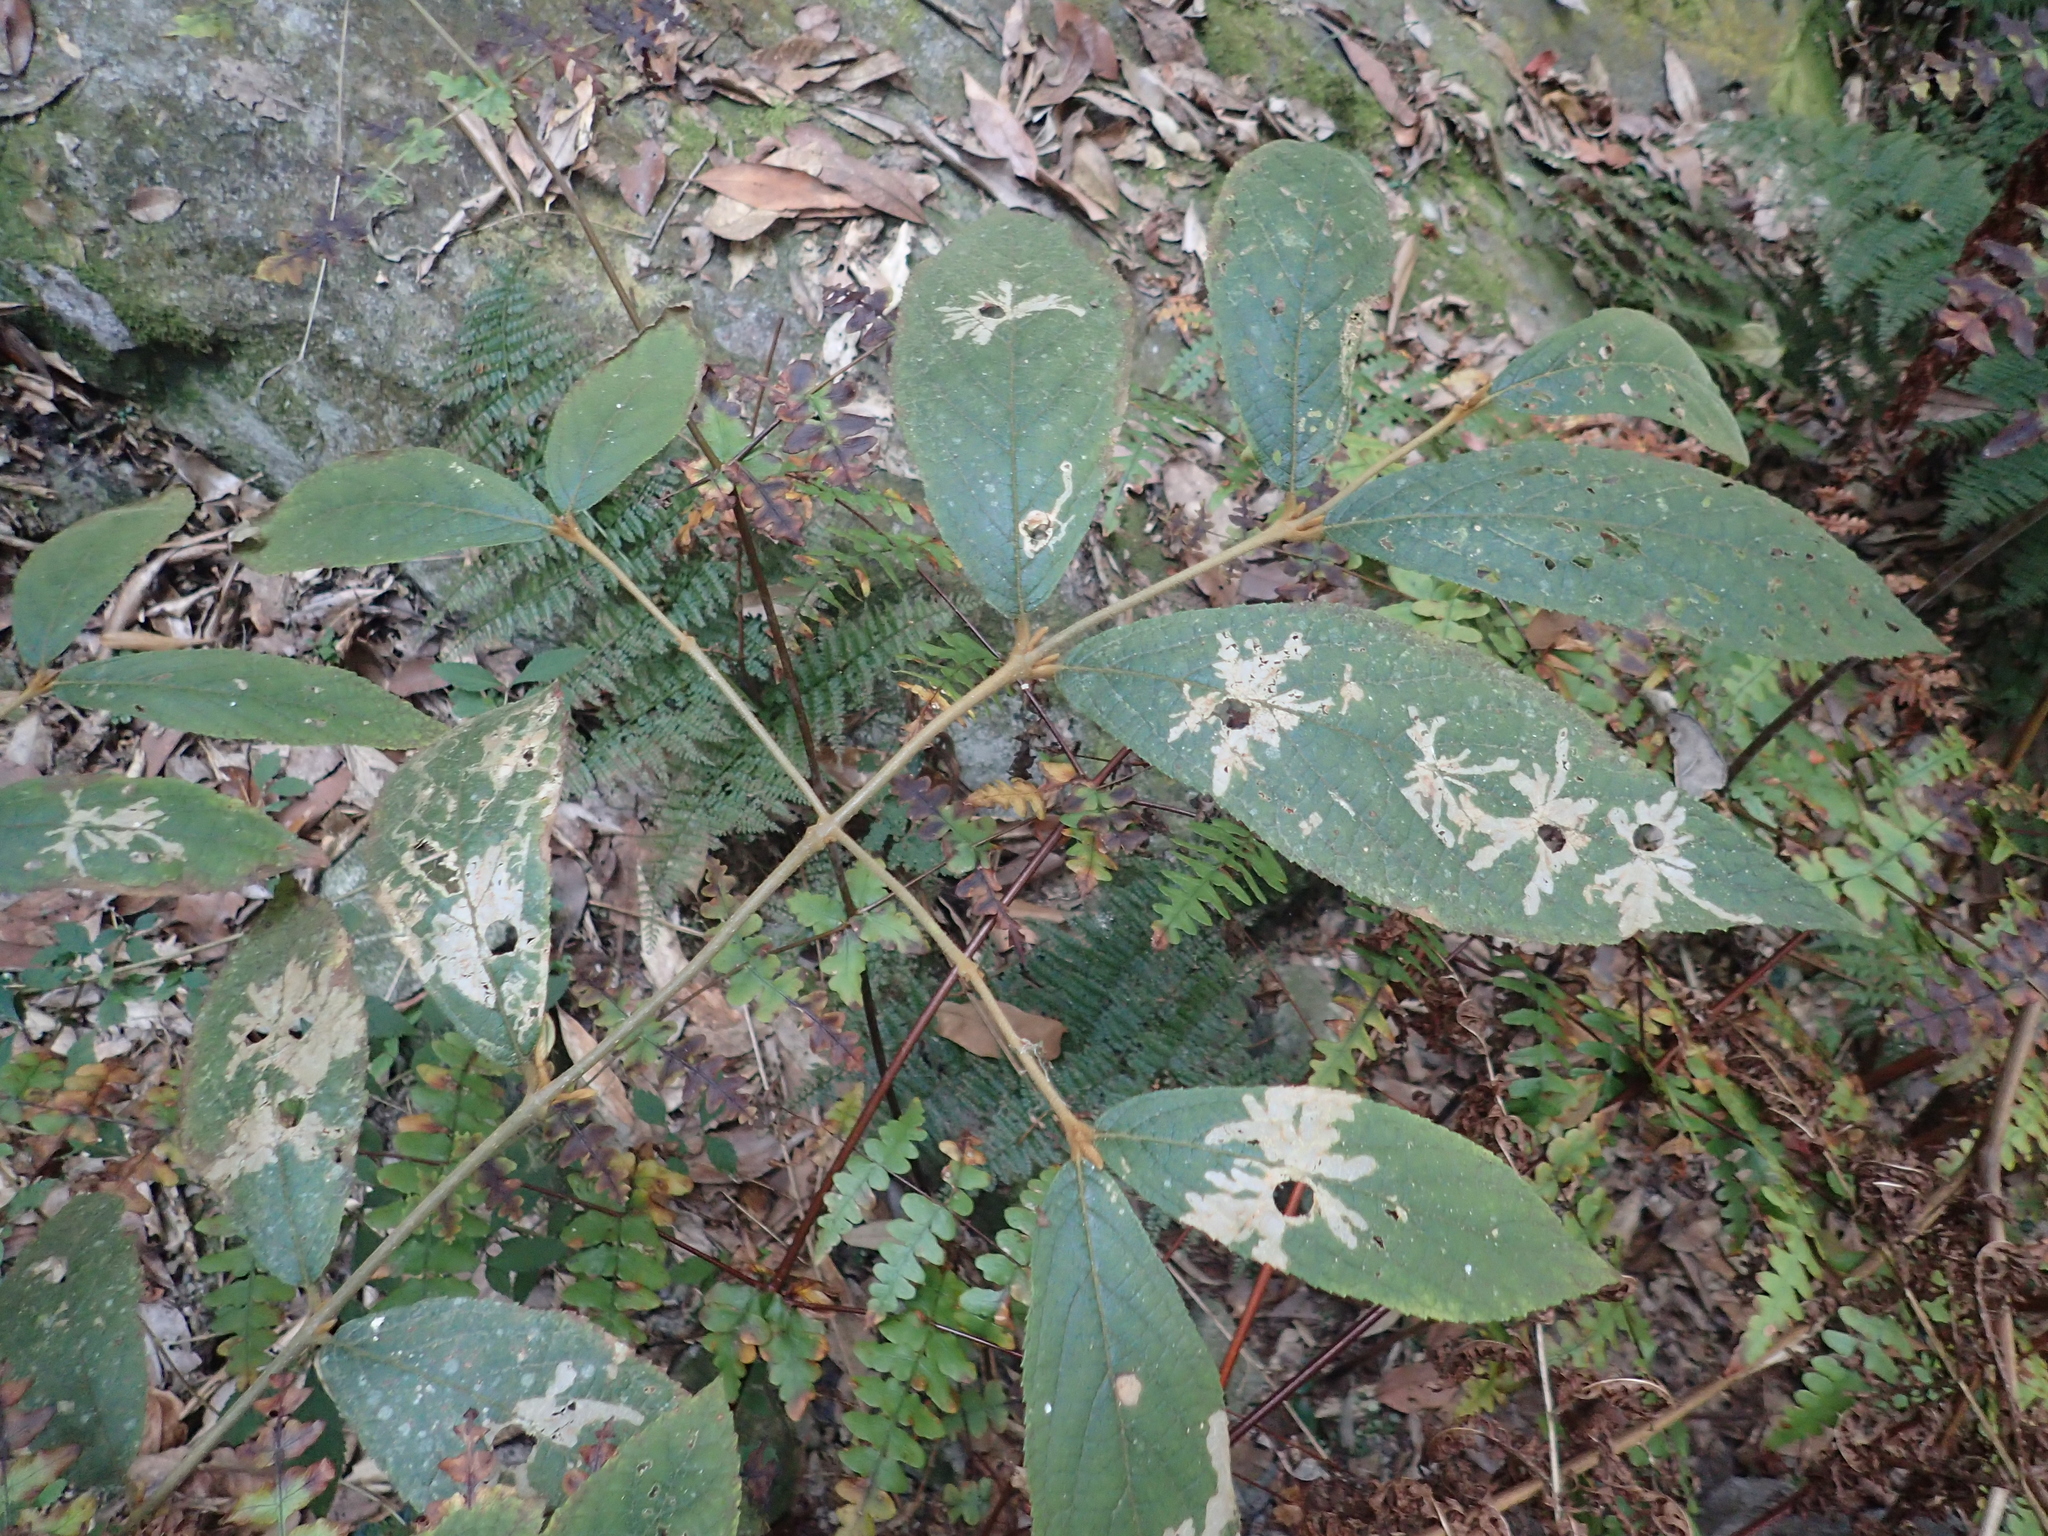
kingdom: Plantae
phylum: Tracheophyta
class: Magnoliopsida
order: Lamiales
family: Lamiaceae
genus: Callicarpa
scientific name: Callicarpa pedunculata
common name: Velvetleaf
